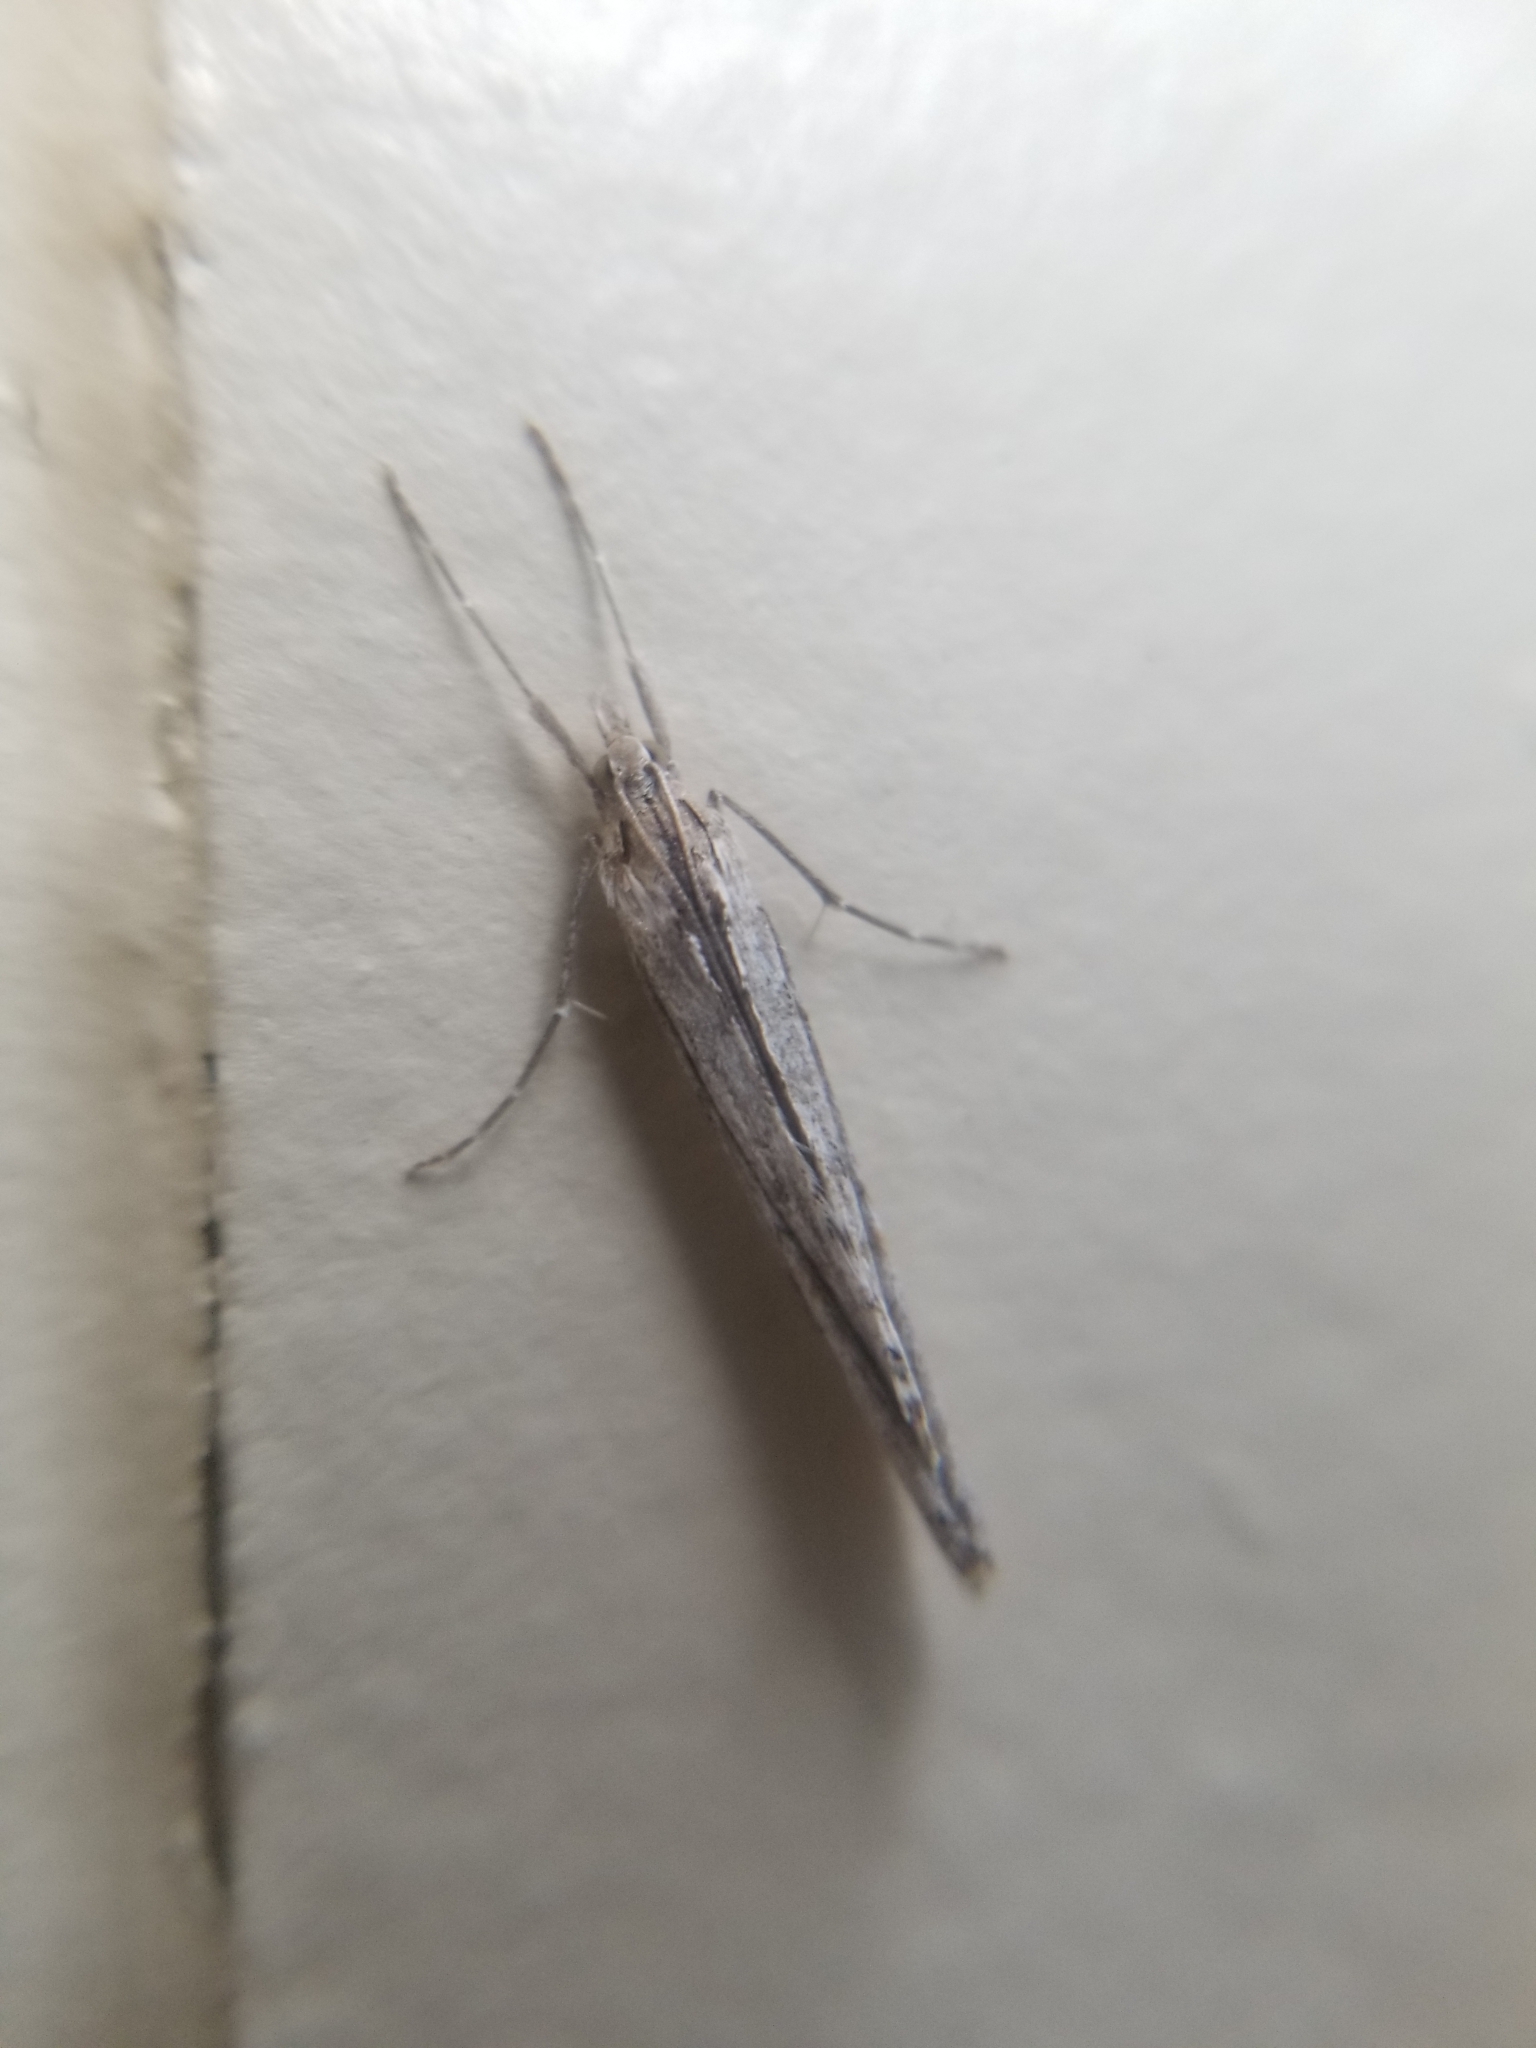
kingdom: Animalia
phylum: Arthropoda
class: Insecta
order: Lepidoptera
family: Crambidae
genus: Evergestis
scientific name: Evergestis angustalis
